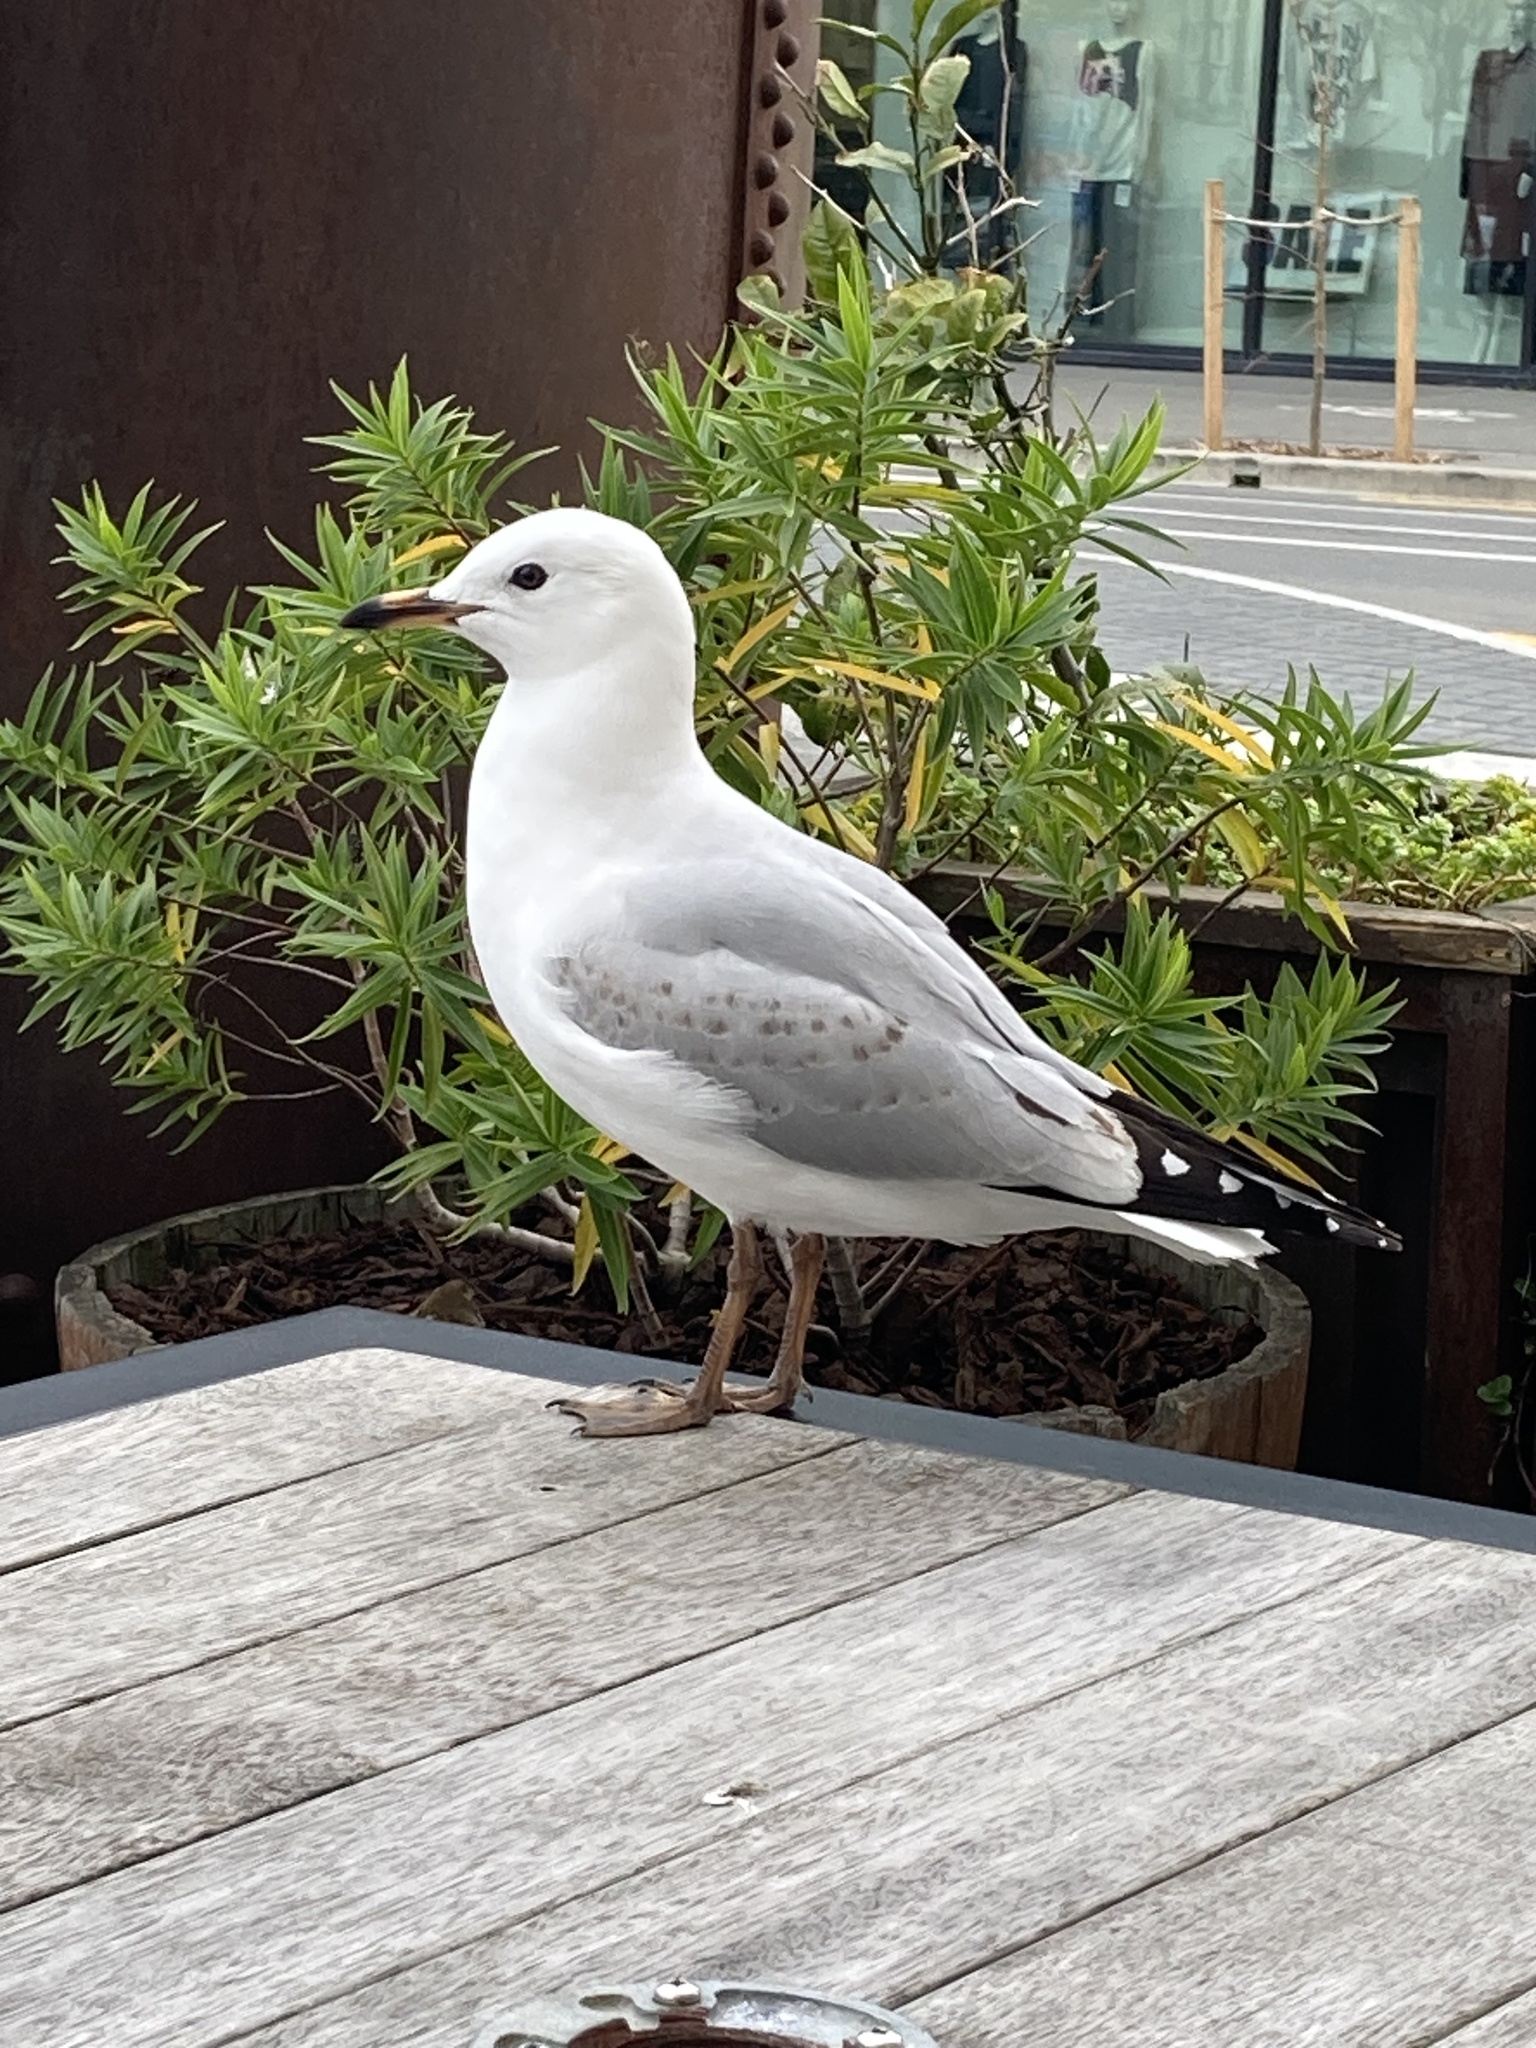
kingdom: Animalia
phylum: Chordata
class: Aves
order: Charadriiformes
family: Laridae
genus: Chroicocephalus
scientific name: Chroicocephalus novaehollandiae
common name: Silver gull
